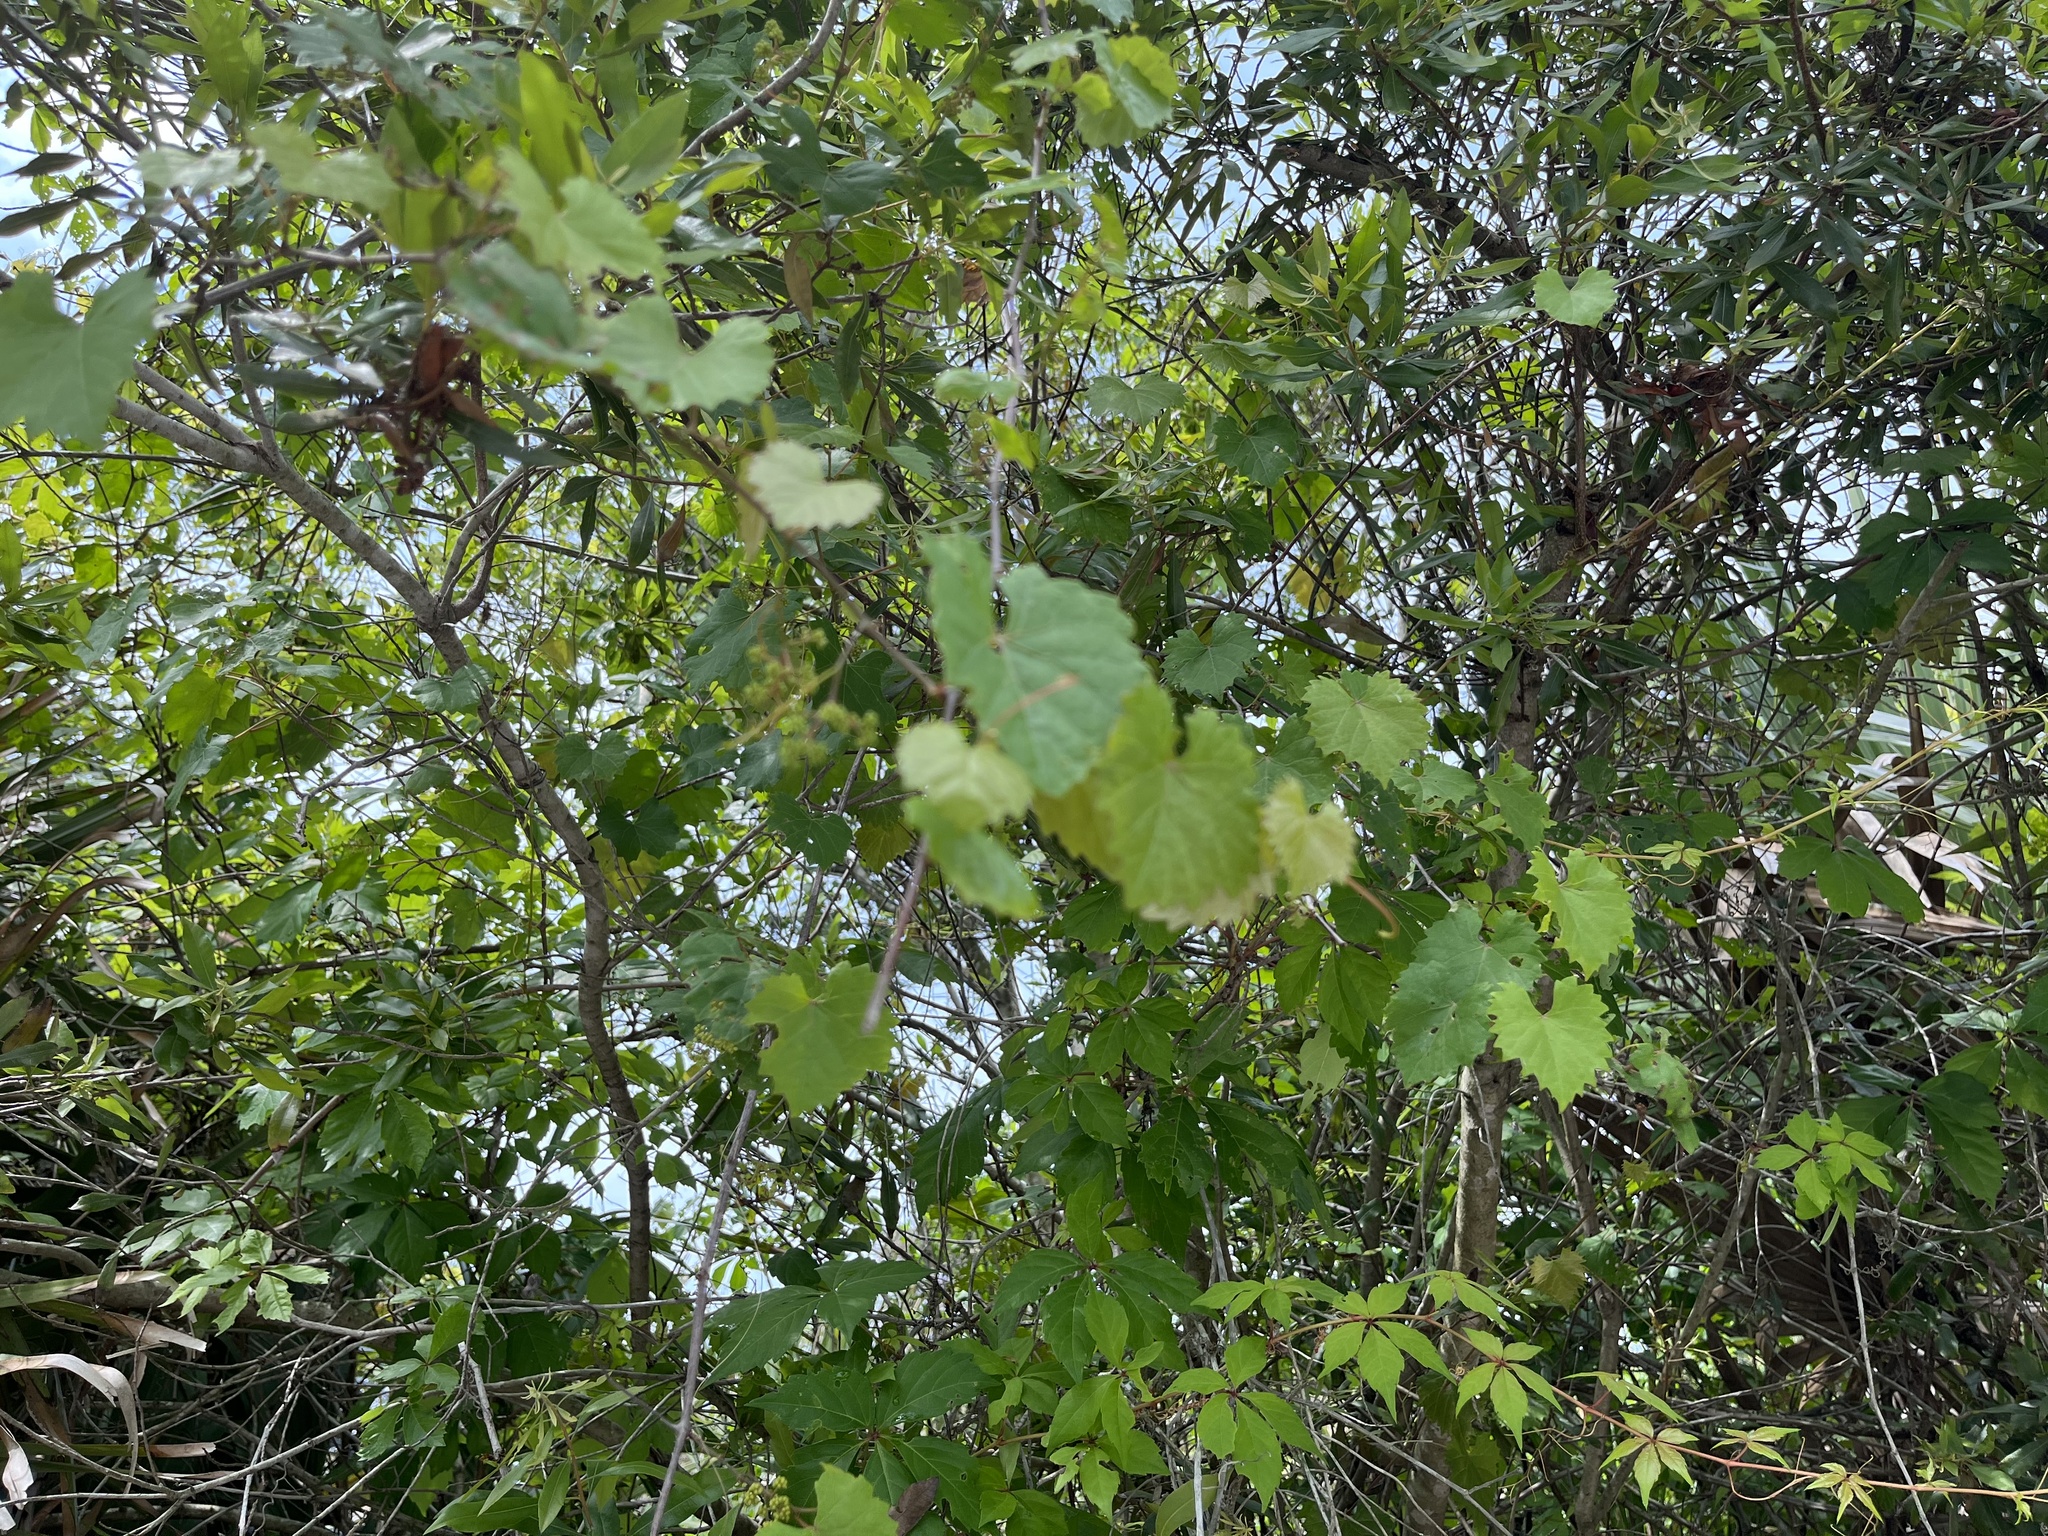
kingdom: Plantae
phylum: Tracheophyta
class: Magnoliopsida
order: Vitales
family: Vitaceae
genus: Vitis
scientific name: Vitis rotundifolia
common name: Muscadine grape
